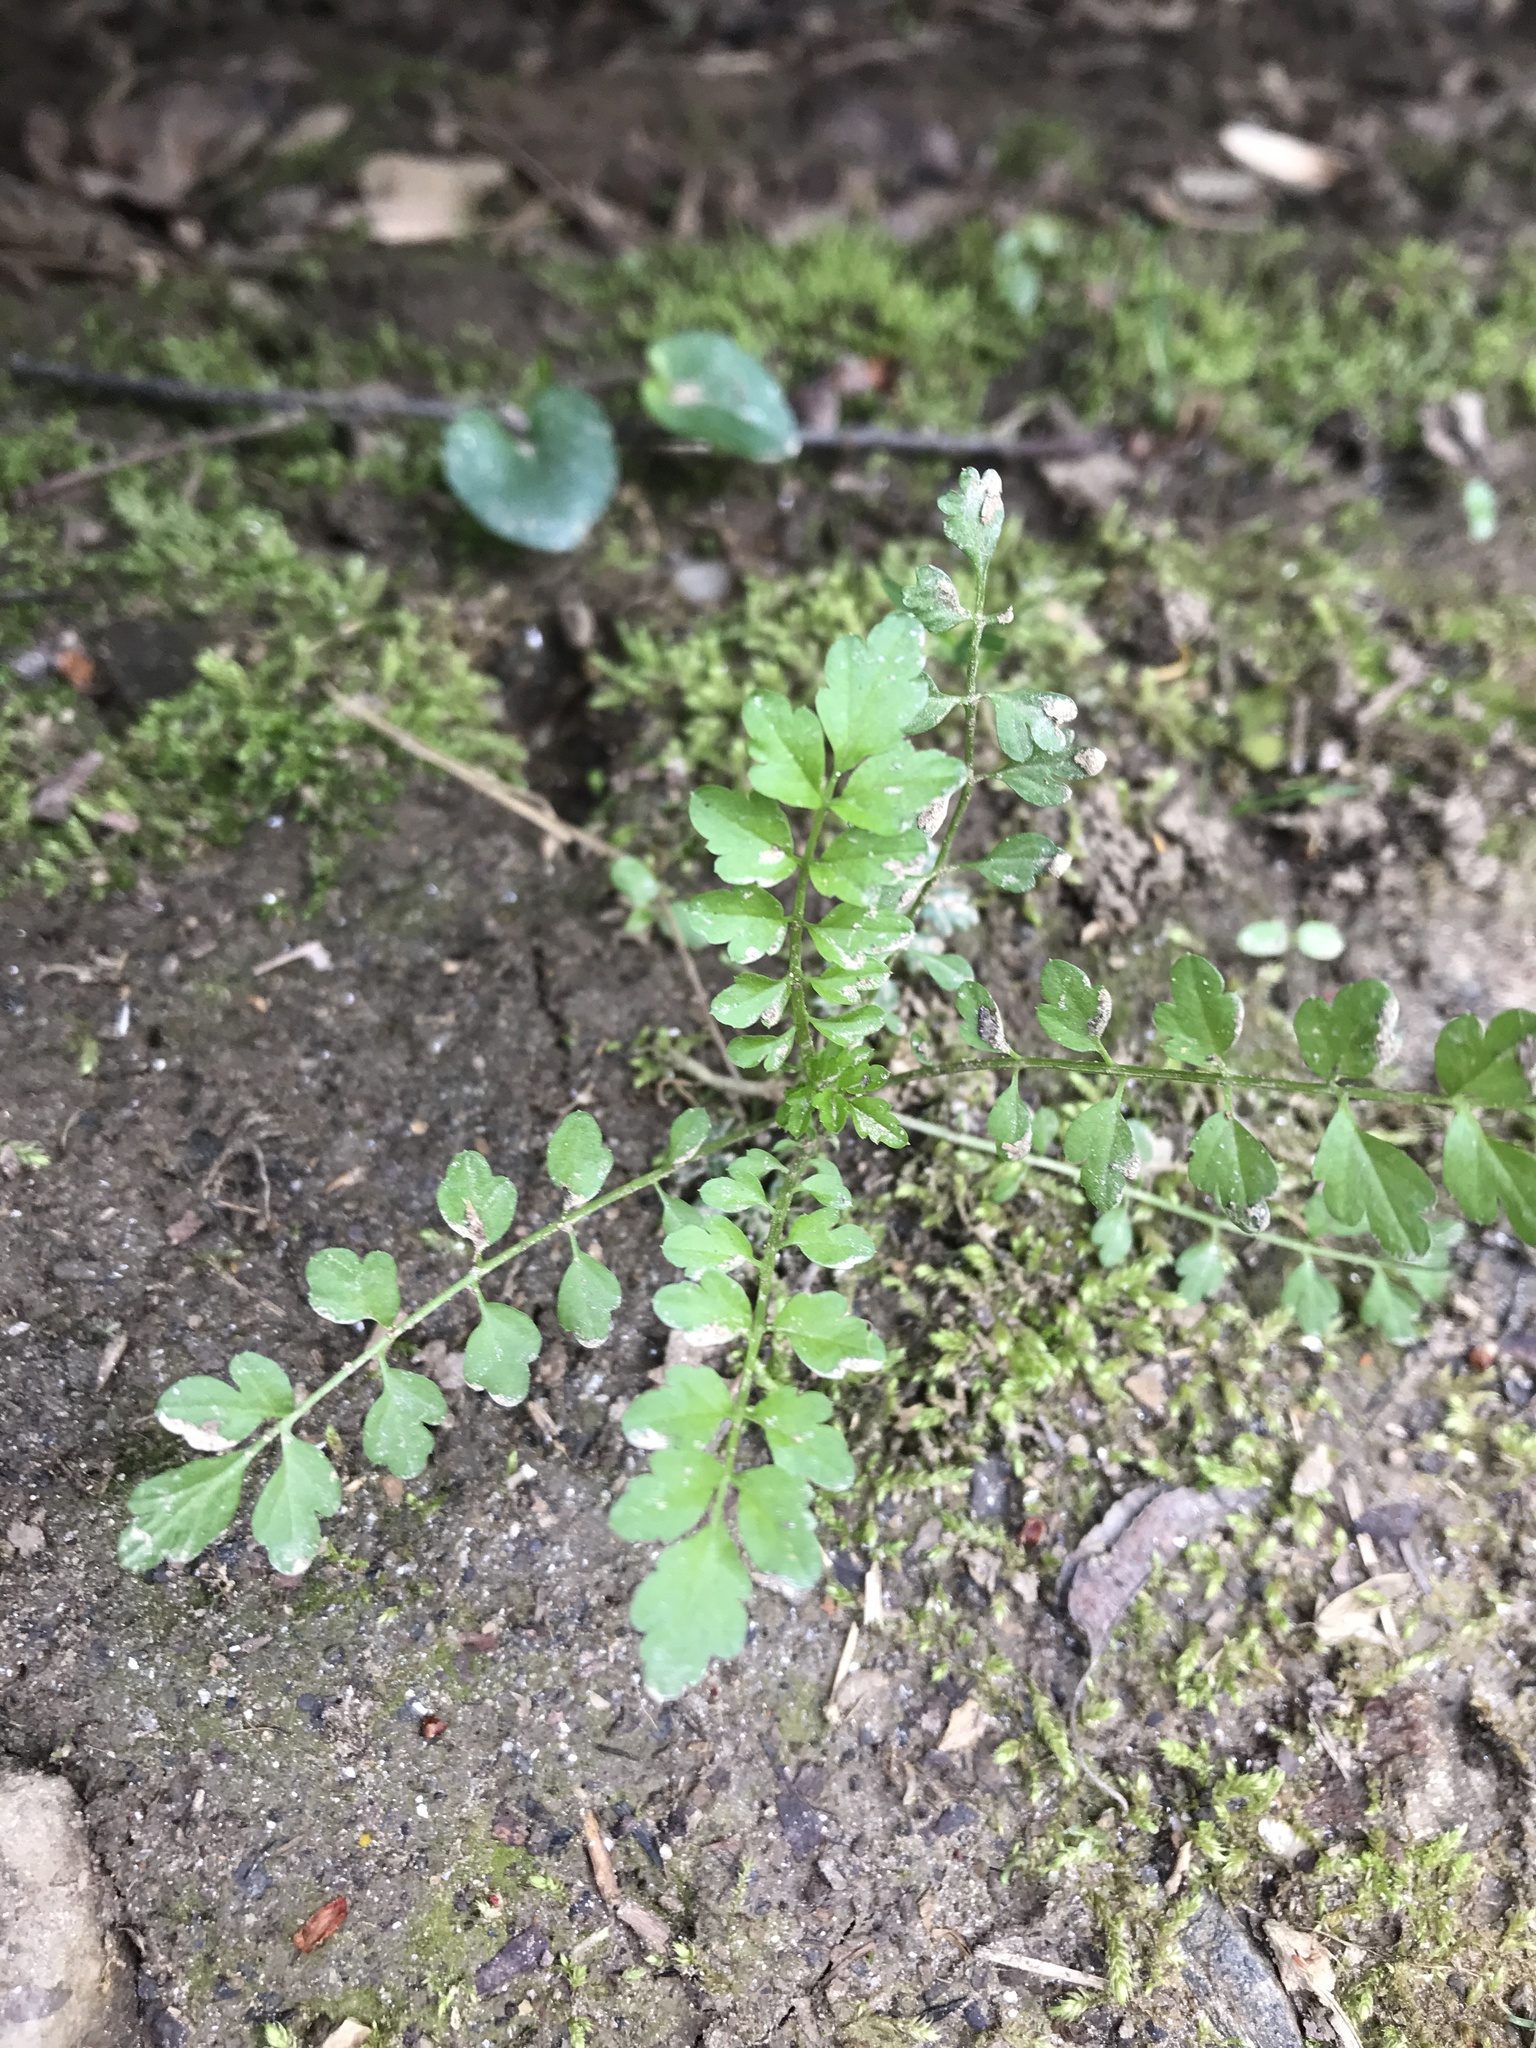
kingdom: Plantae
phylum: Tracheophyta
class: Magnoliopsida
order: Brassicales
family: Brassicaceae
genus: Cardamine
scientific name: Cardamine impatiens
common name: Narrow-leaved bitter-cress
